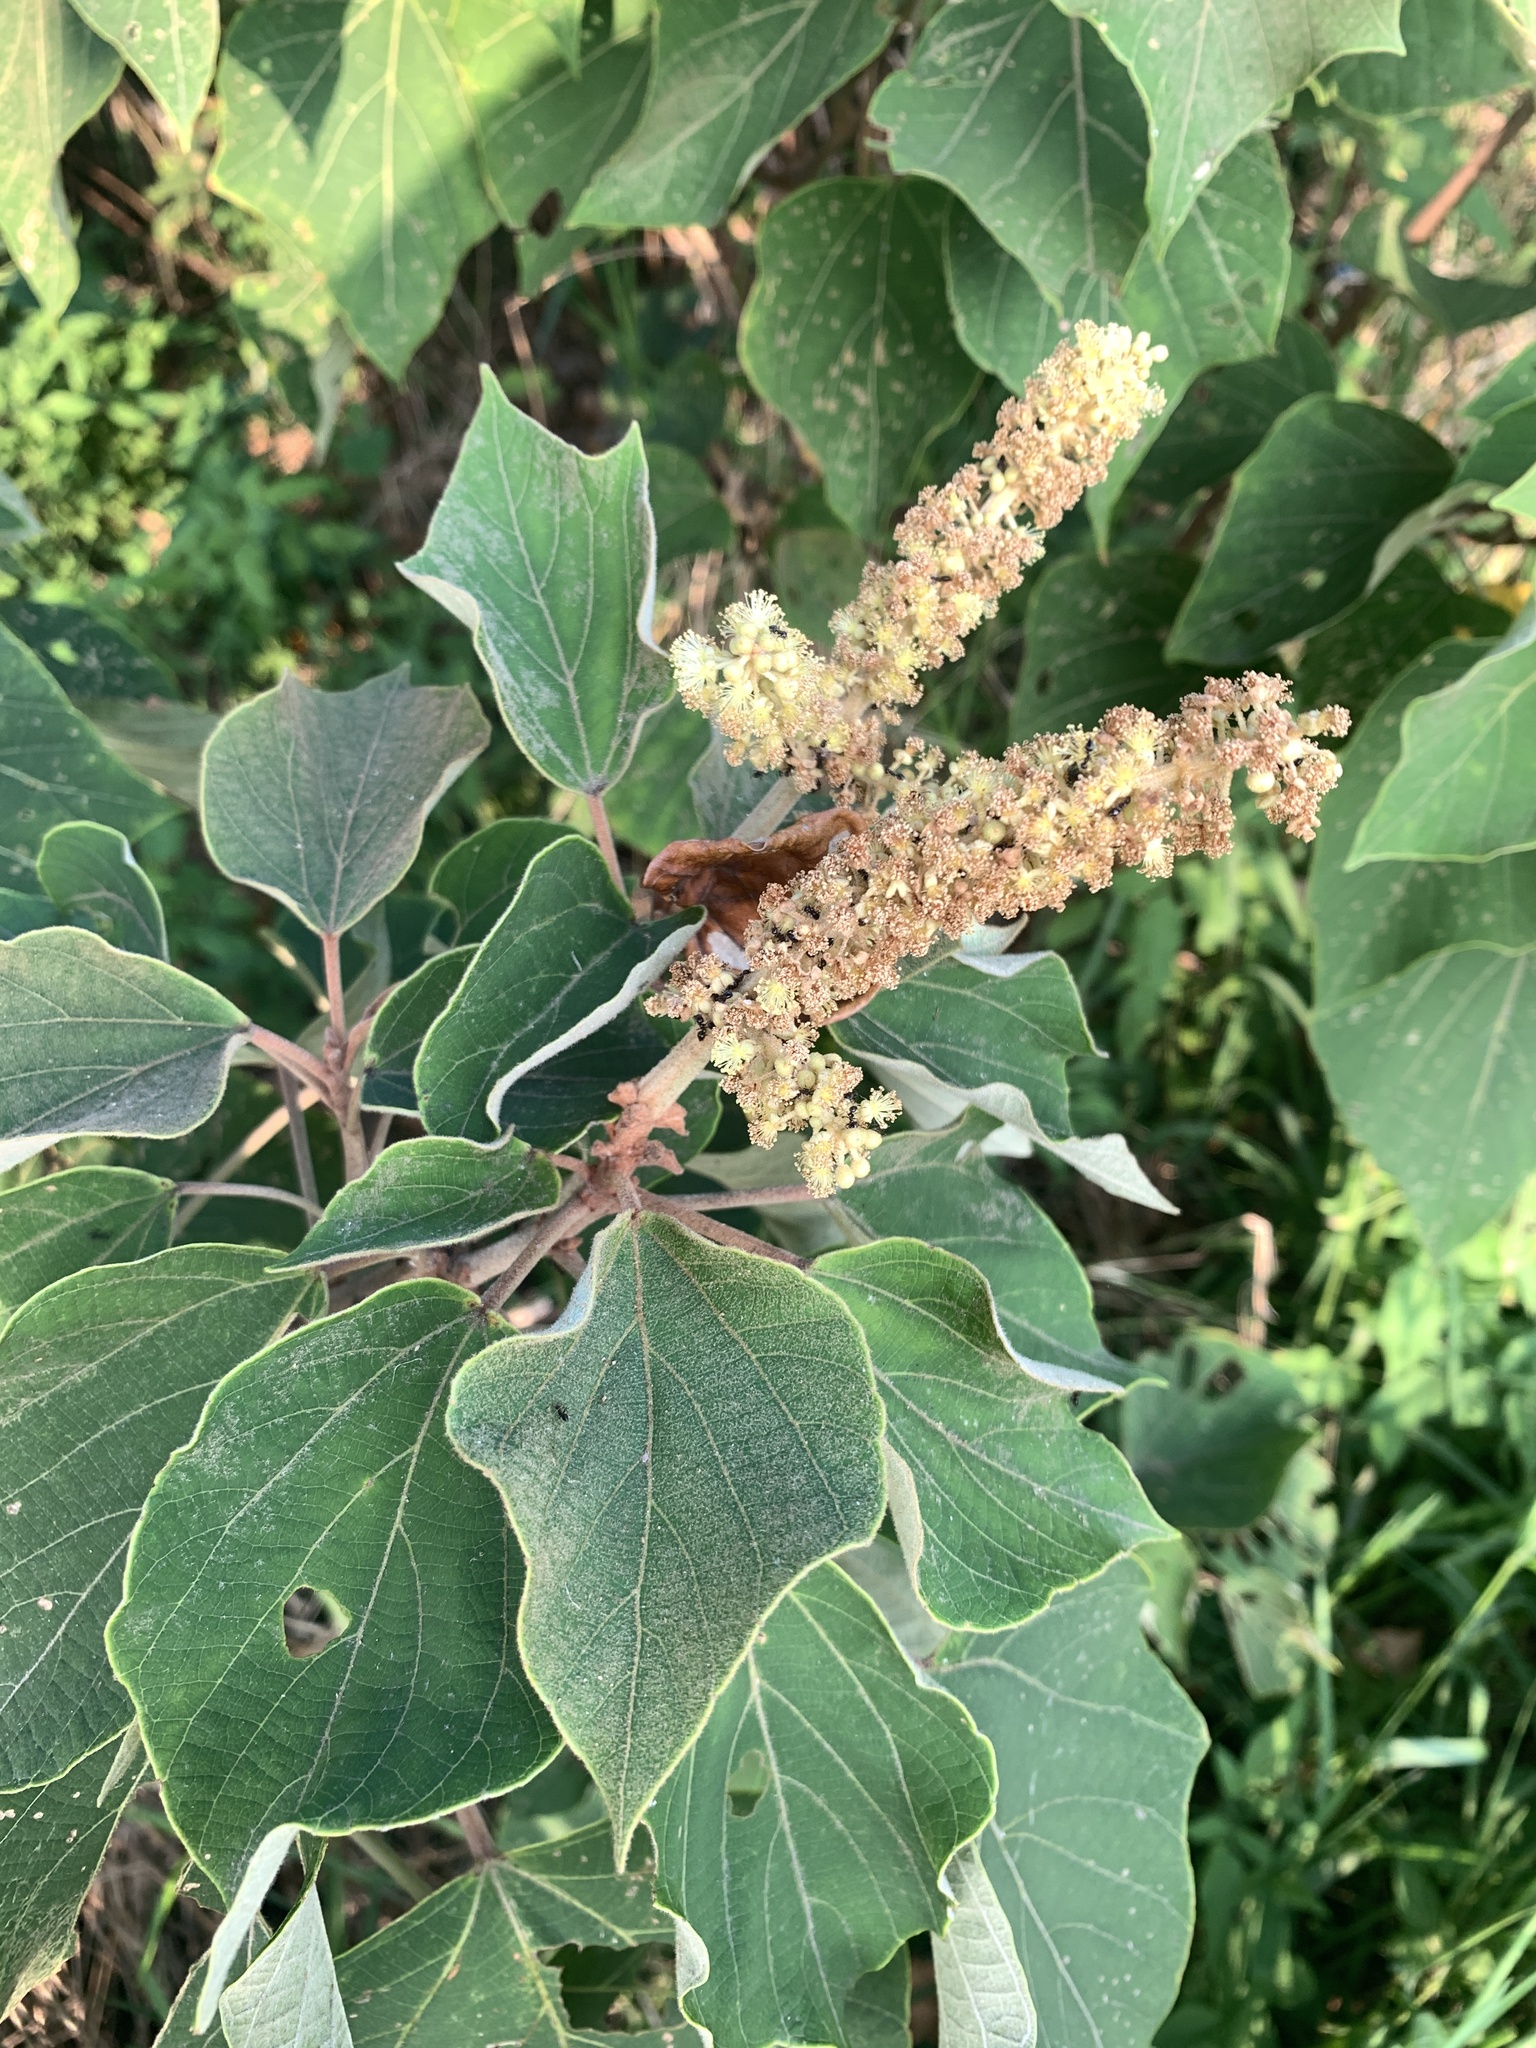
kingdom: Plantae
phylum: Tracheophyta
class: Magnoliopsida
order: Malpighiales
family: Euphorbiaceae
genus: Mallotus
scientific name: Mallotus japonicus
